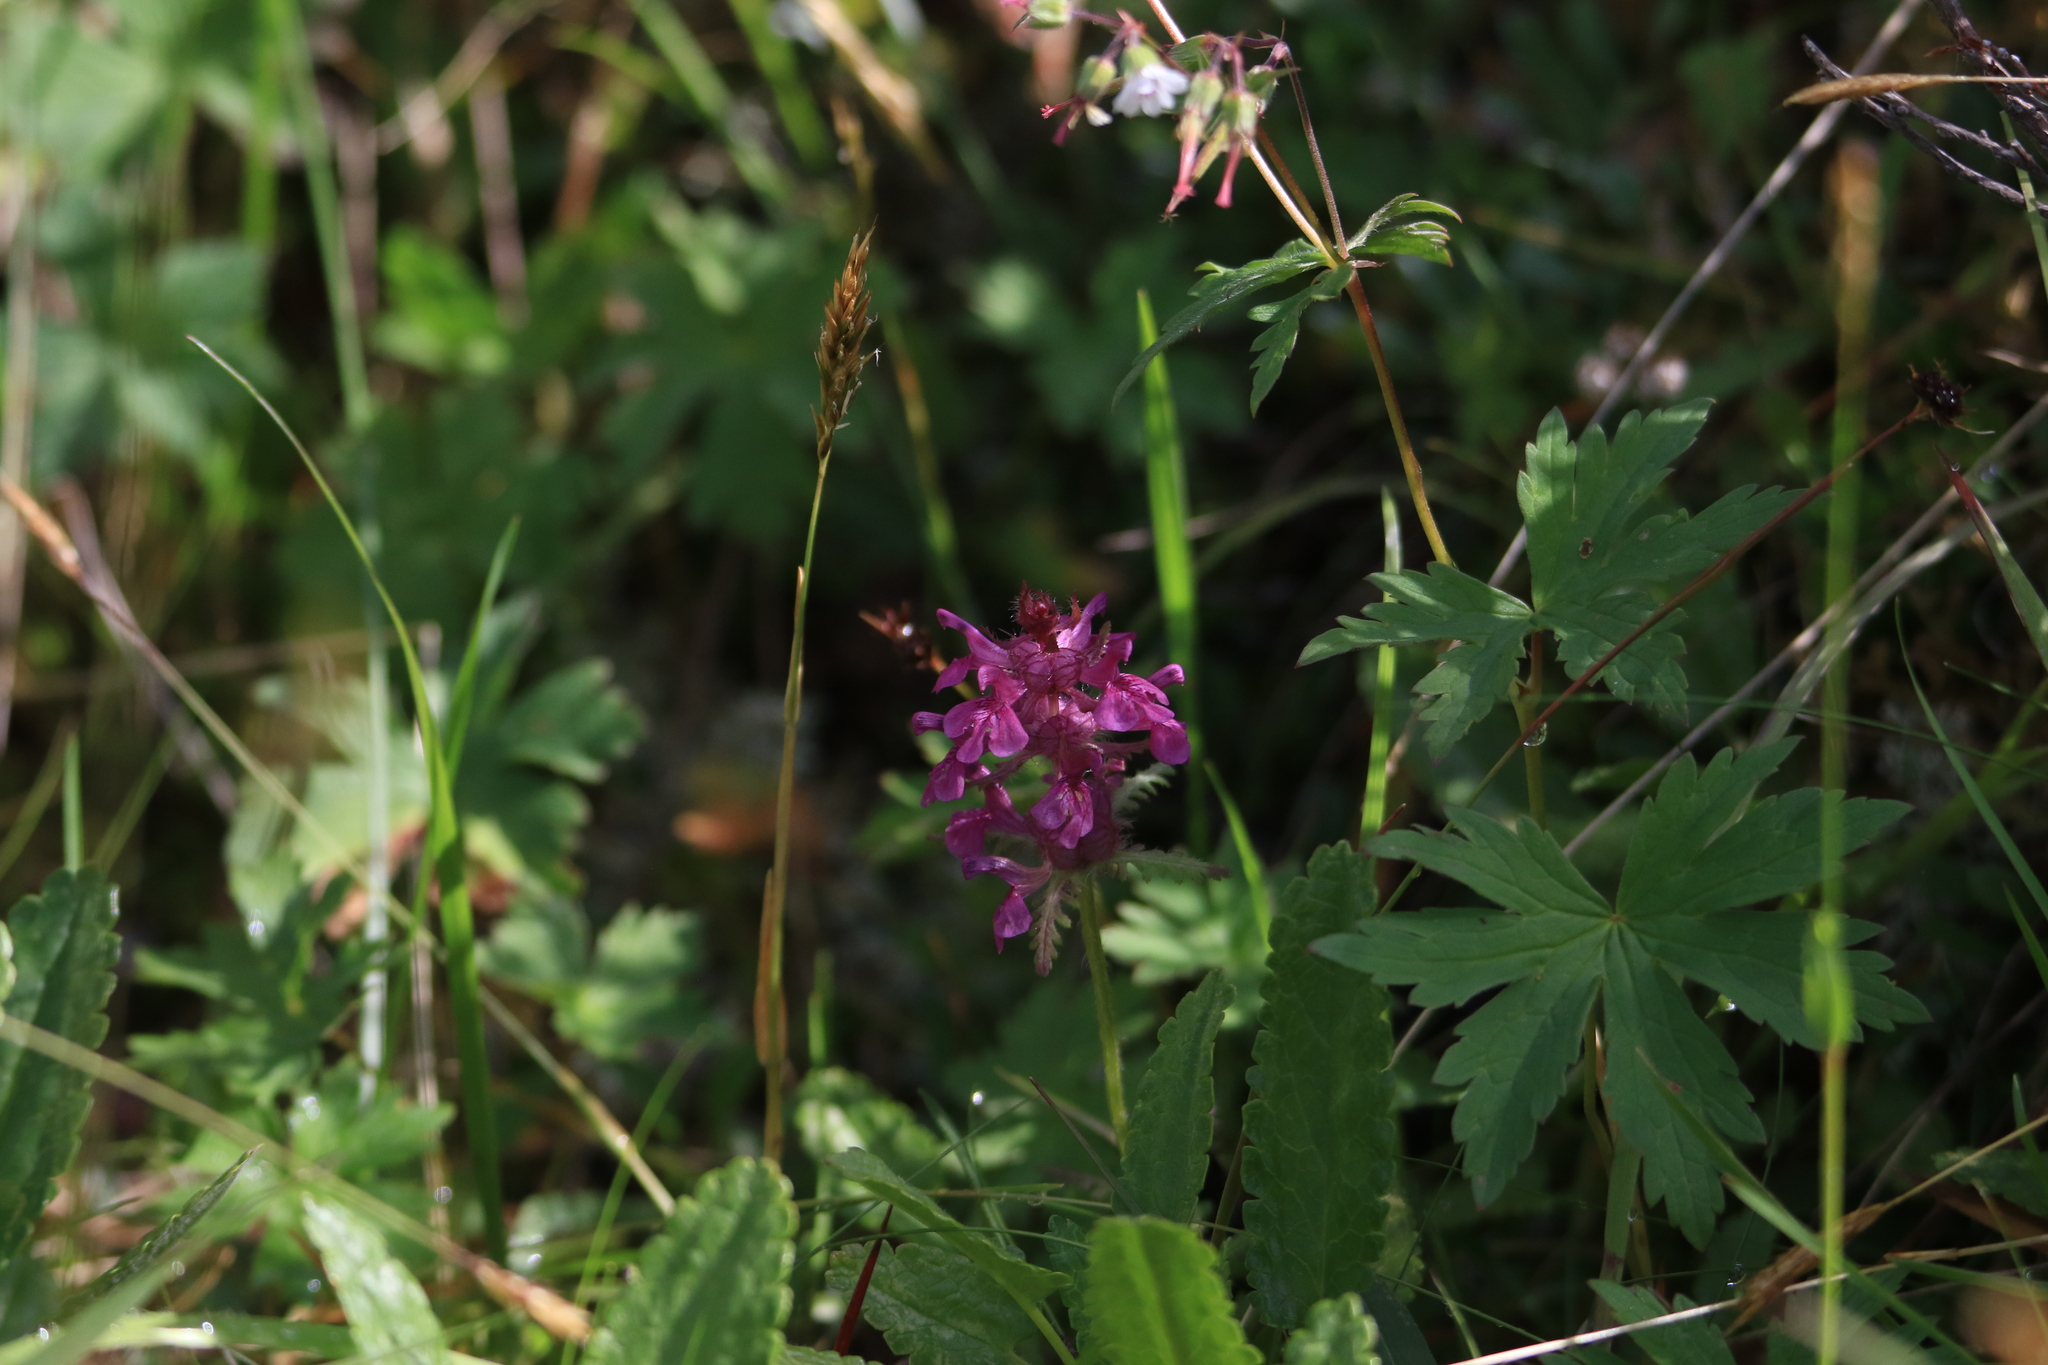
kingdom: Plantae
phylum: Tracheophyta
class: Magnoliopsida
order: Lamiales
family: Orobanchaceae
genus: Pedicularis
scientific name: Pedicularis verticillata
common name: Whorled lousewort
